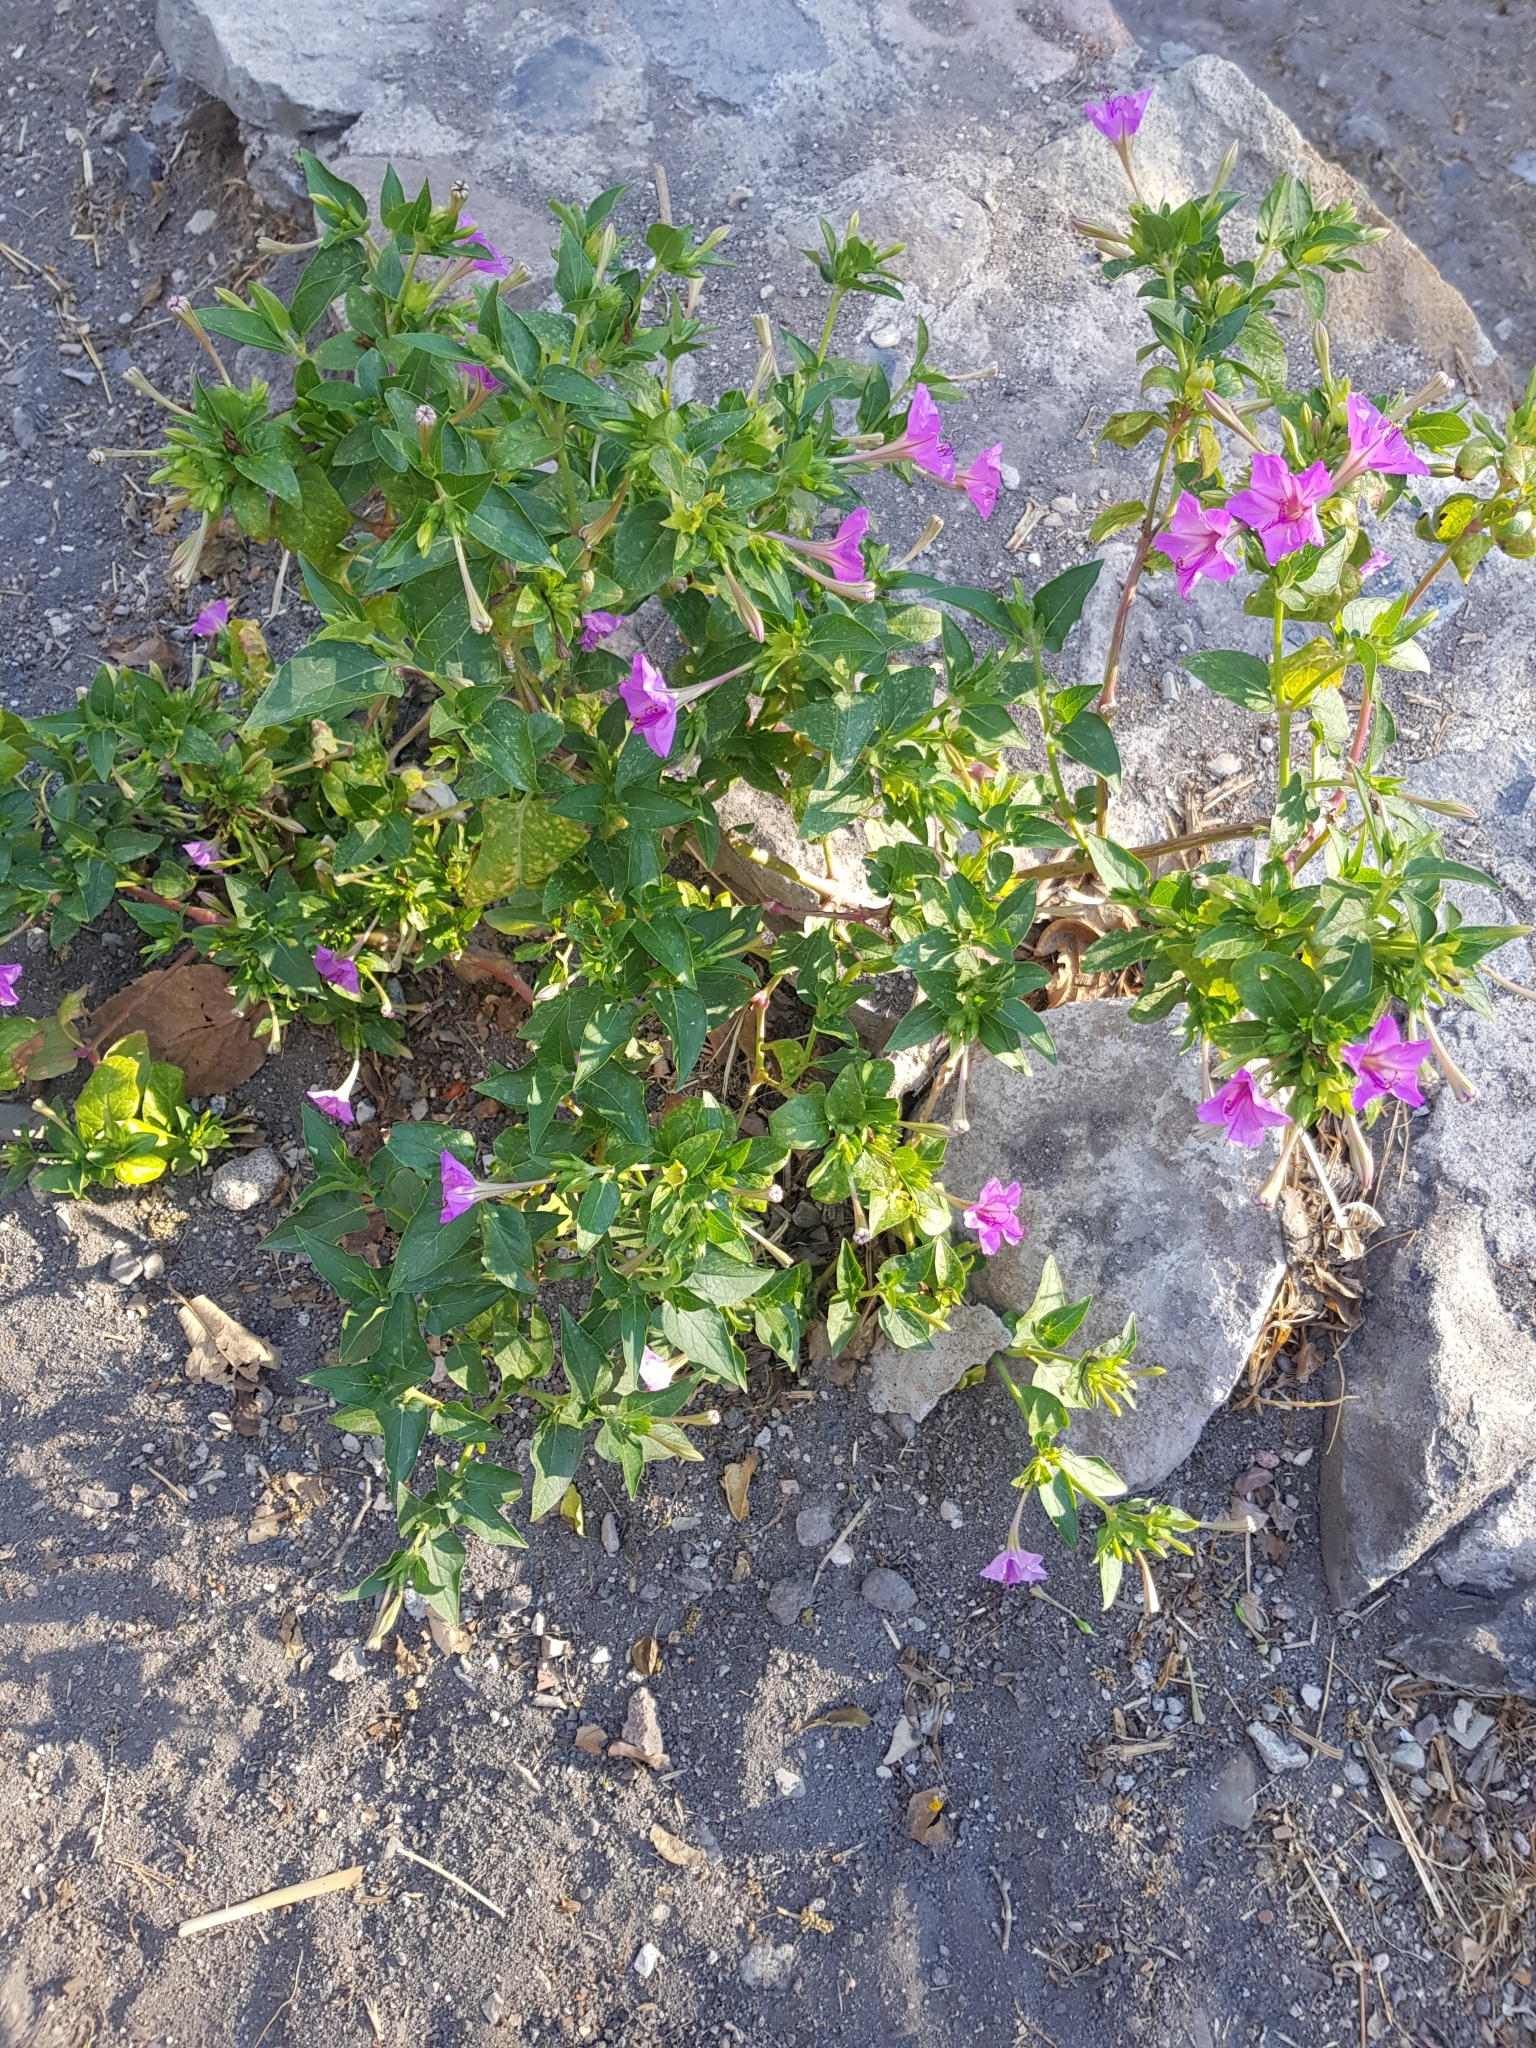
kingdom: Plantae
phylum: Tracheophyta
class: Magnoliopsida
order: Caryophyllales
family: Nyctaginaceae
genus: Mirabilis
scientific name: Mirabilis jalapa
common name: Marvel-of-peru
